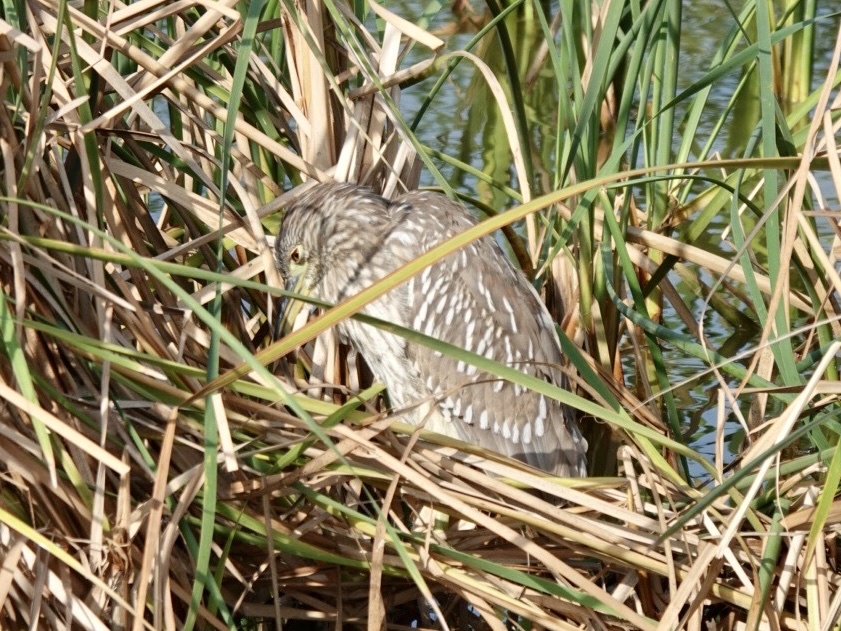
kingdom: Animalia
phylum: Chordata
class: Aves
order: Pelecaniformes
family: Ardeidae
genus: Nycticorax
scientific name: Nycticorax nycticorax
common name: Black-crowned night heron
